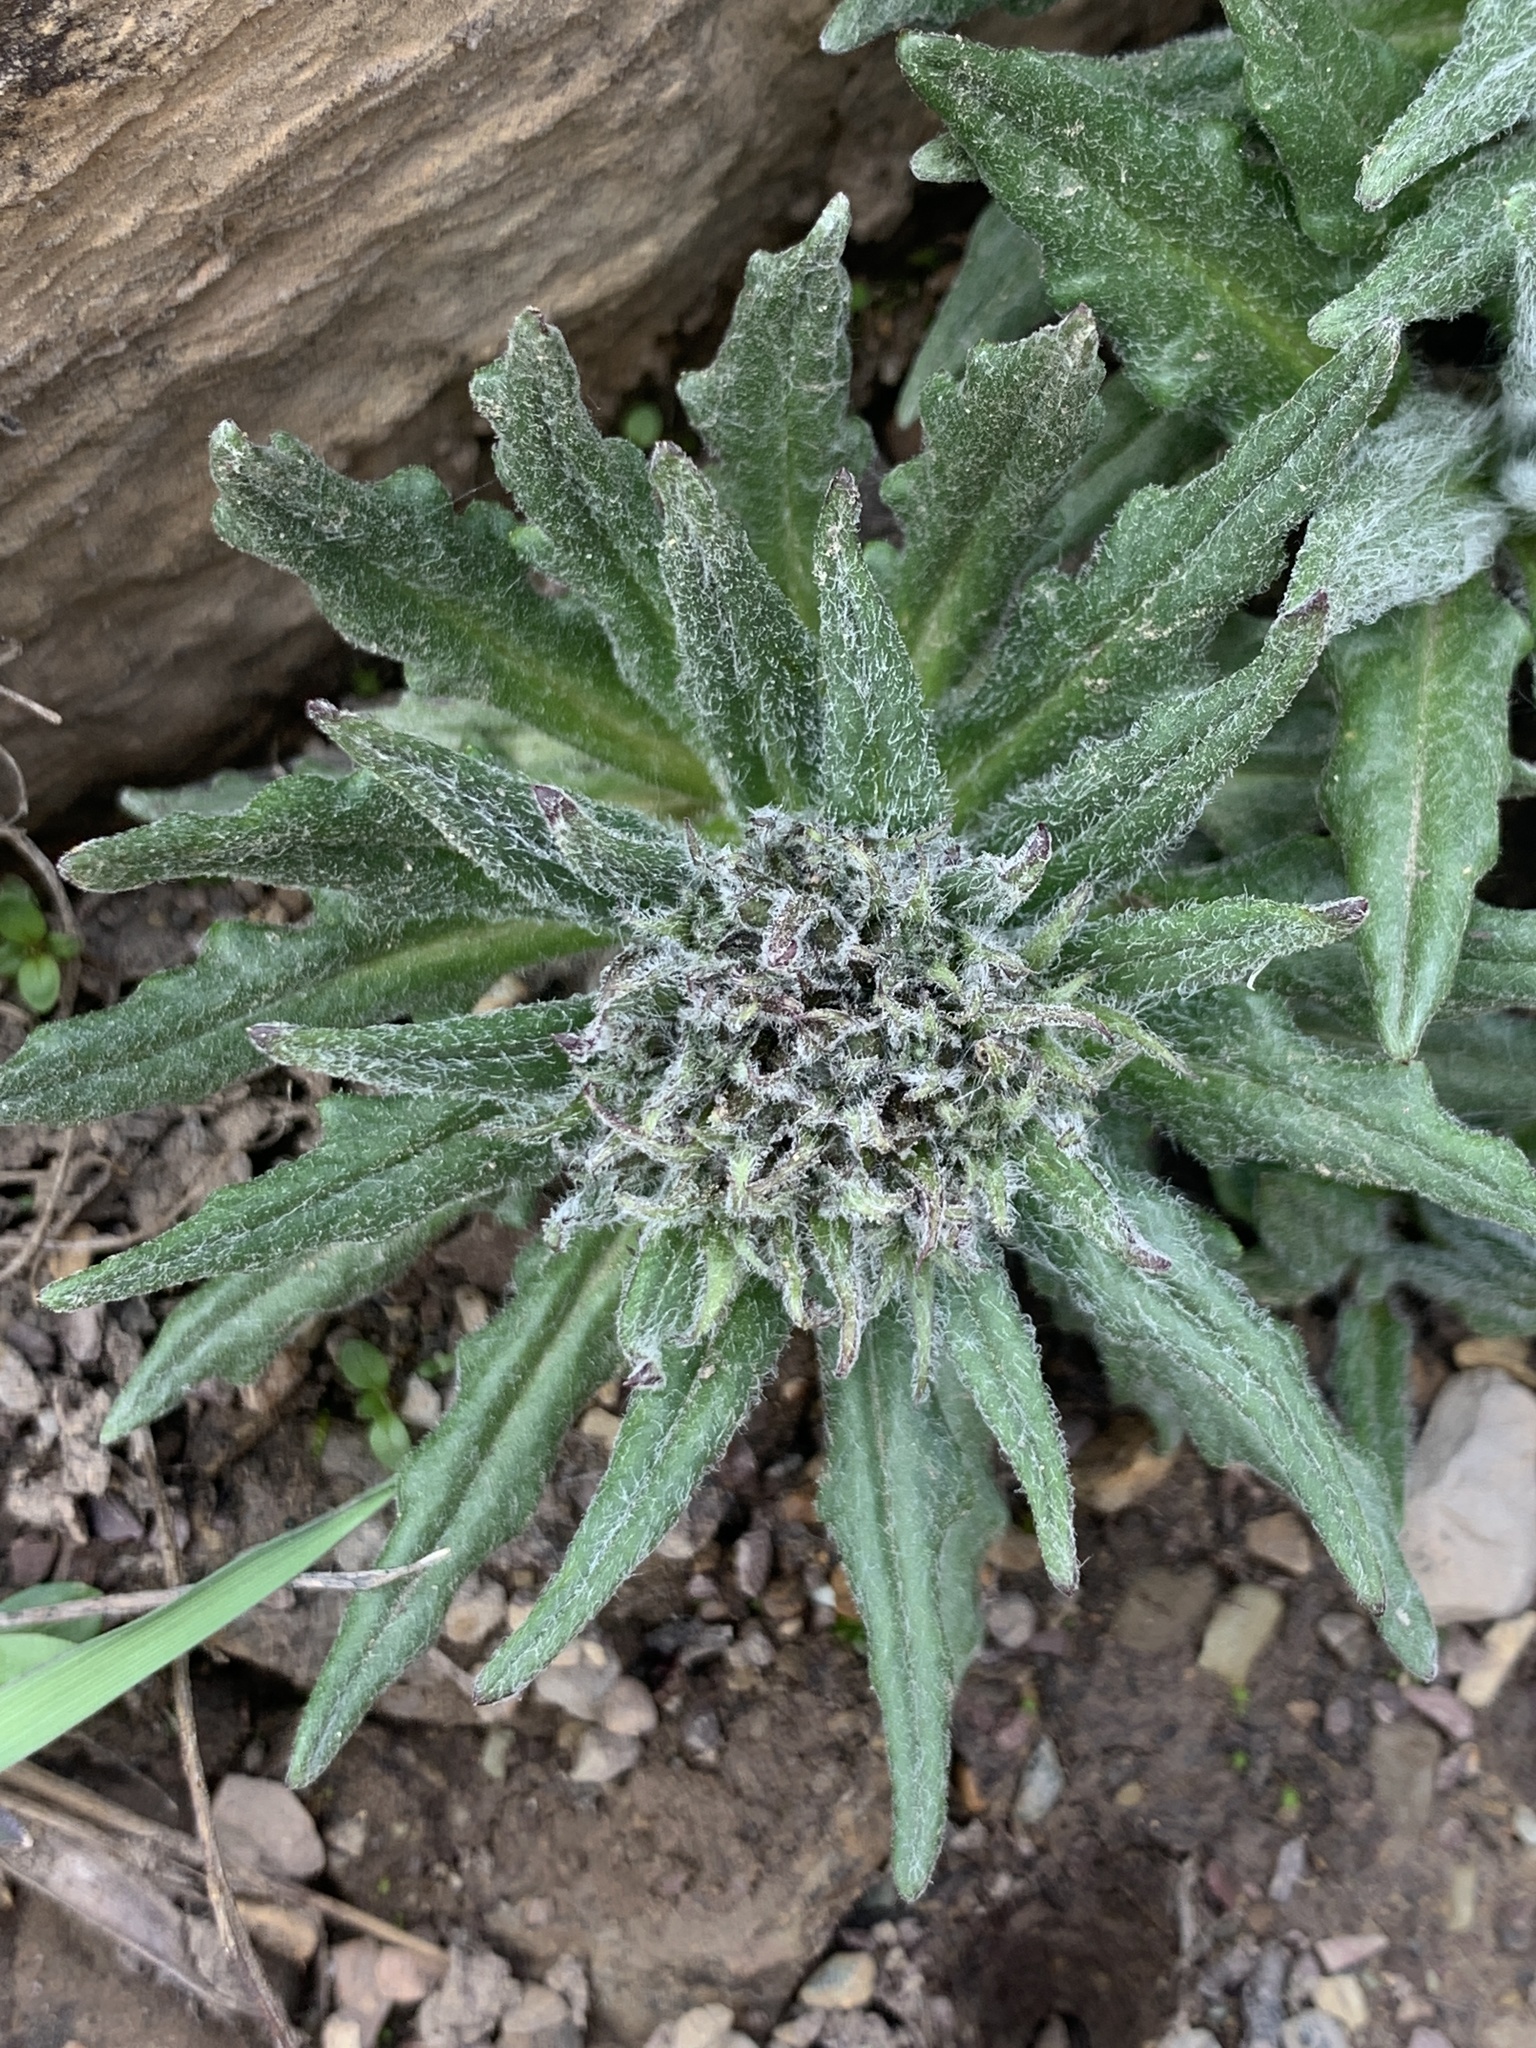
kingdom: Plantae
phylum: Tracheophyta
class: Magnoliopsida
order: Asterales
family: Asteraceae
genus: Saussurea
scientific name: Saussurea nuda
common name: Chaffless saw-wort
